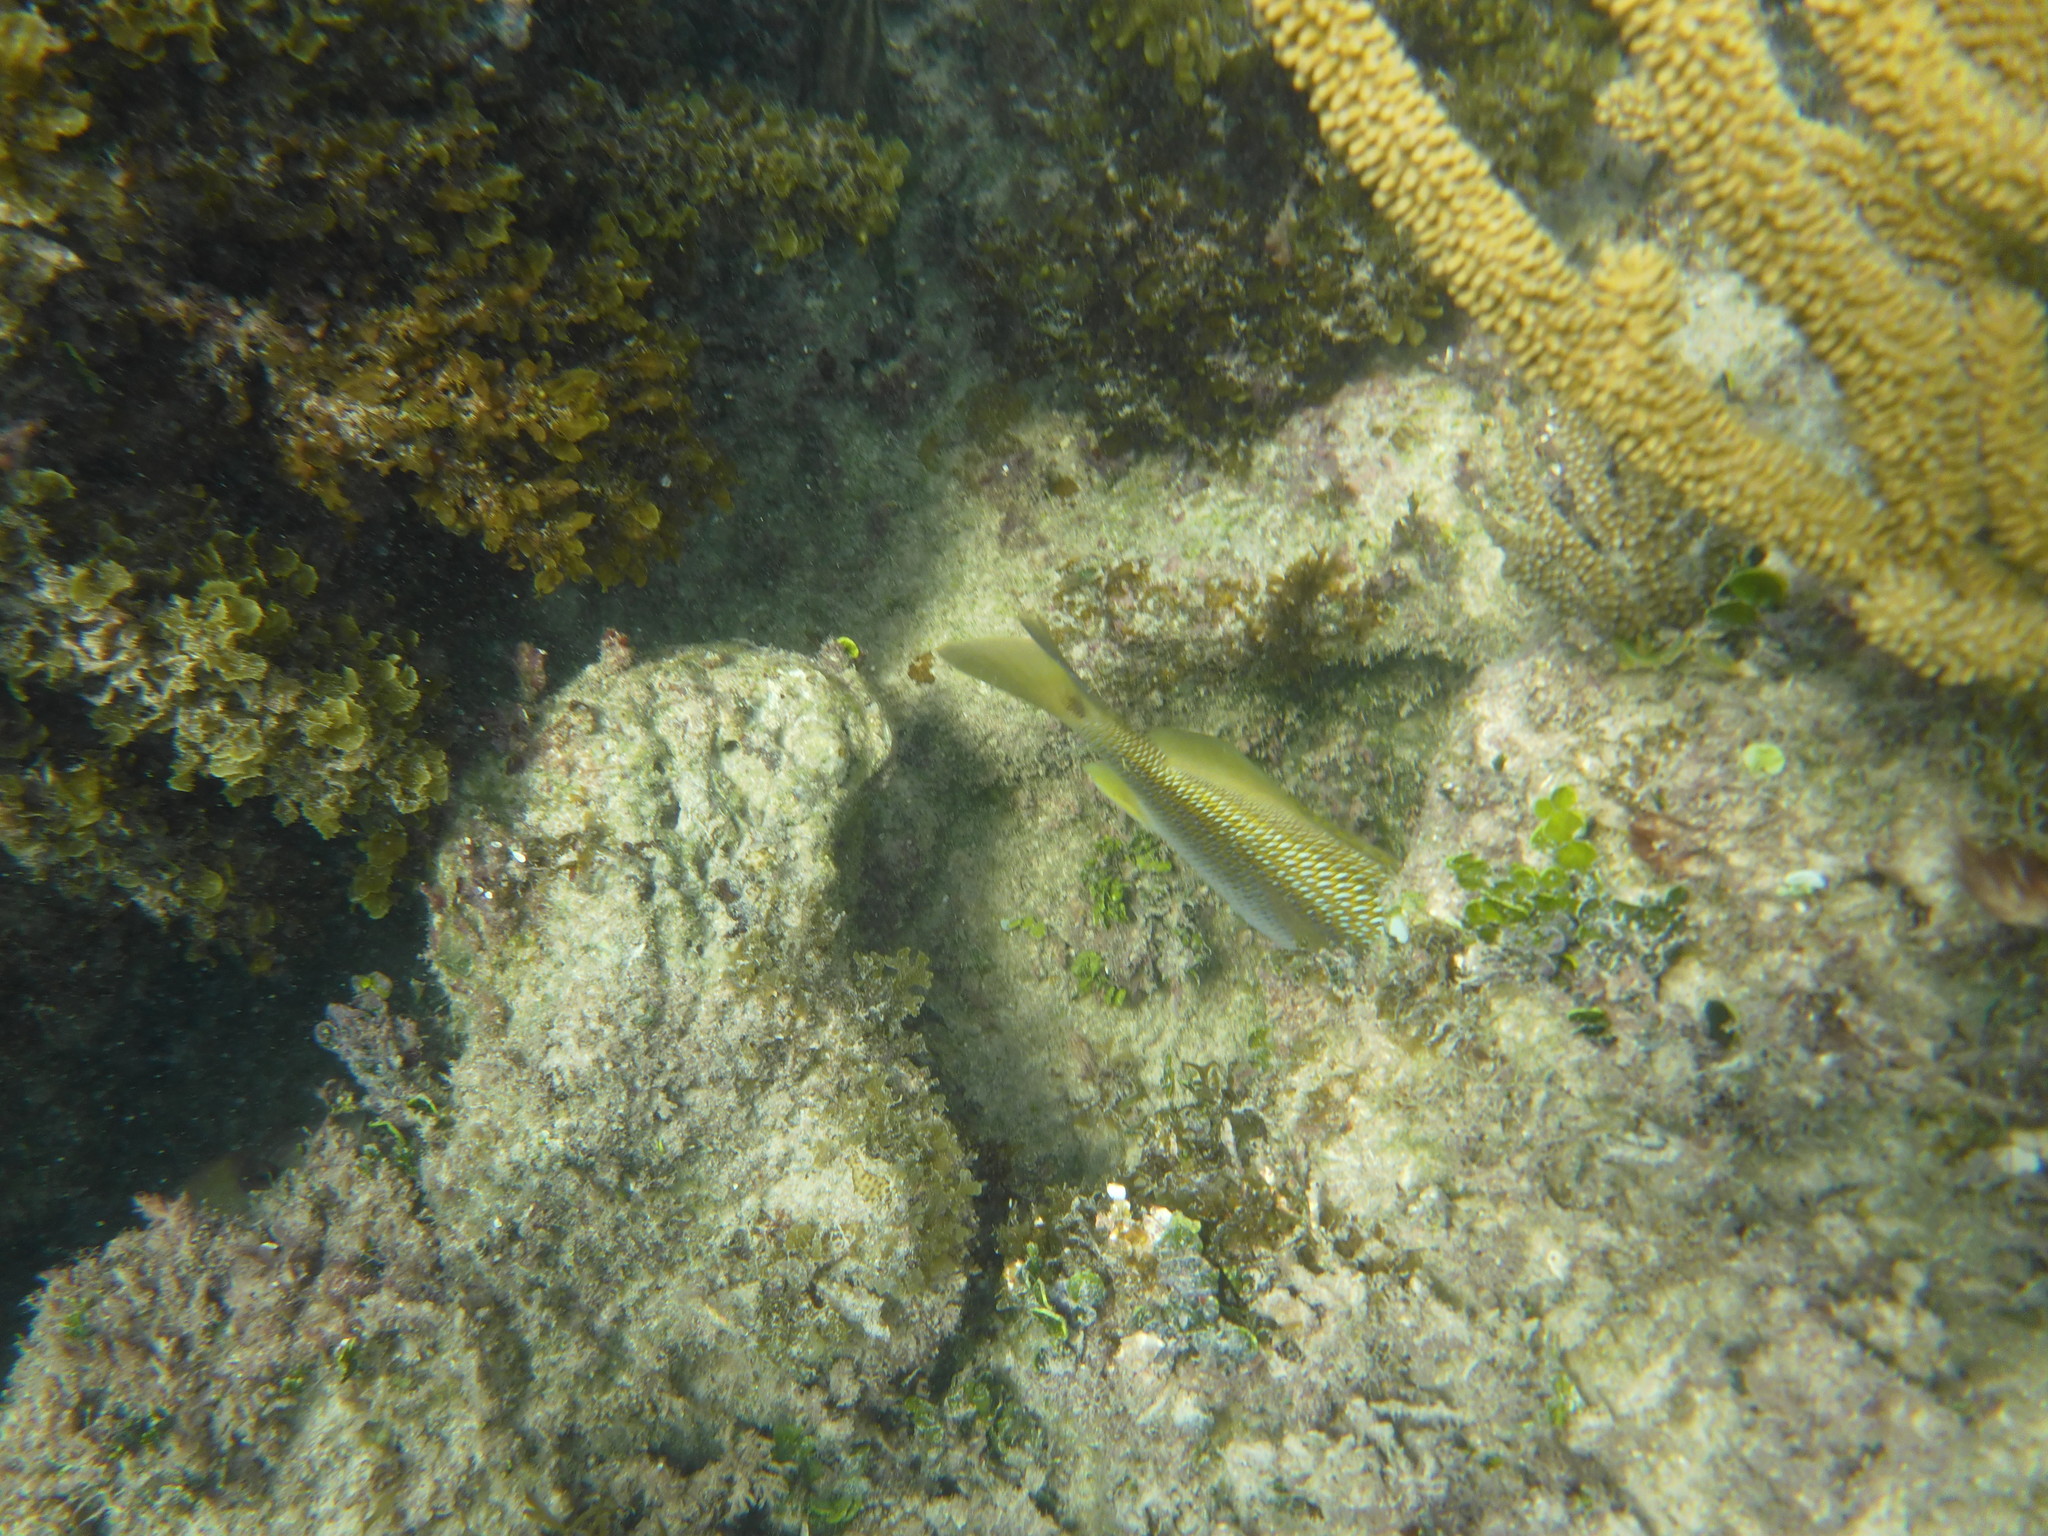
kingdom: Animalia
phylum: Chordata
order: Perciformes
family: Haemulidae
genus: Haemulon
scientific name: Haemulon plumierii
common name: White grunt
